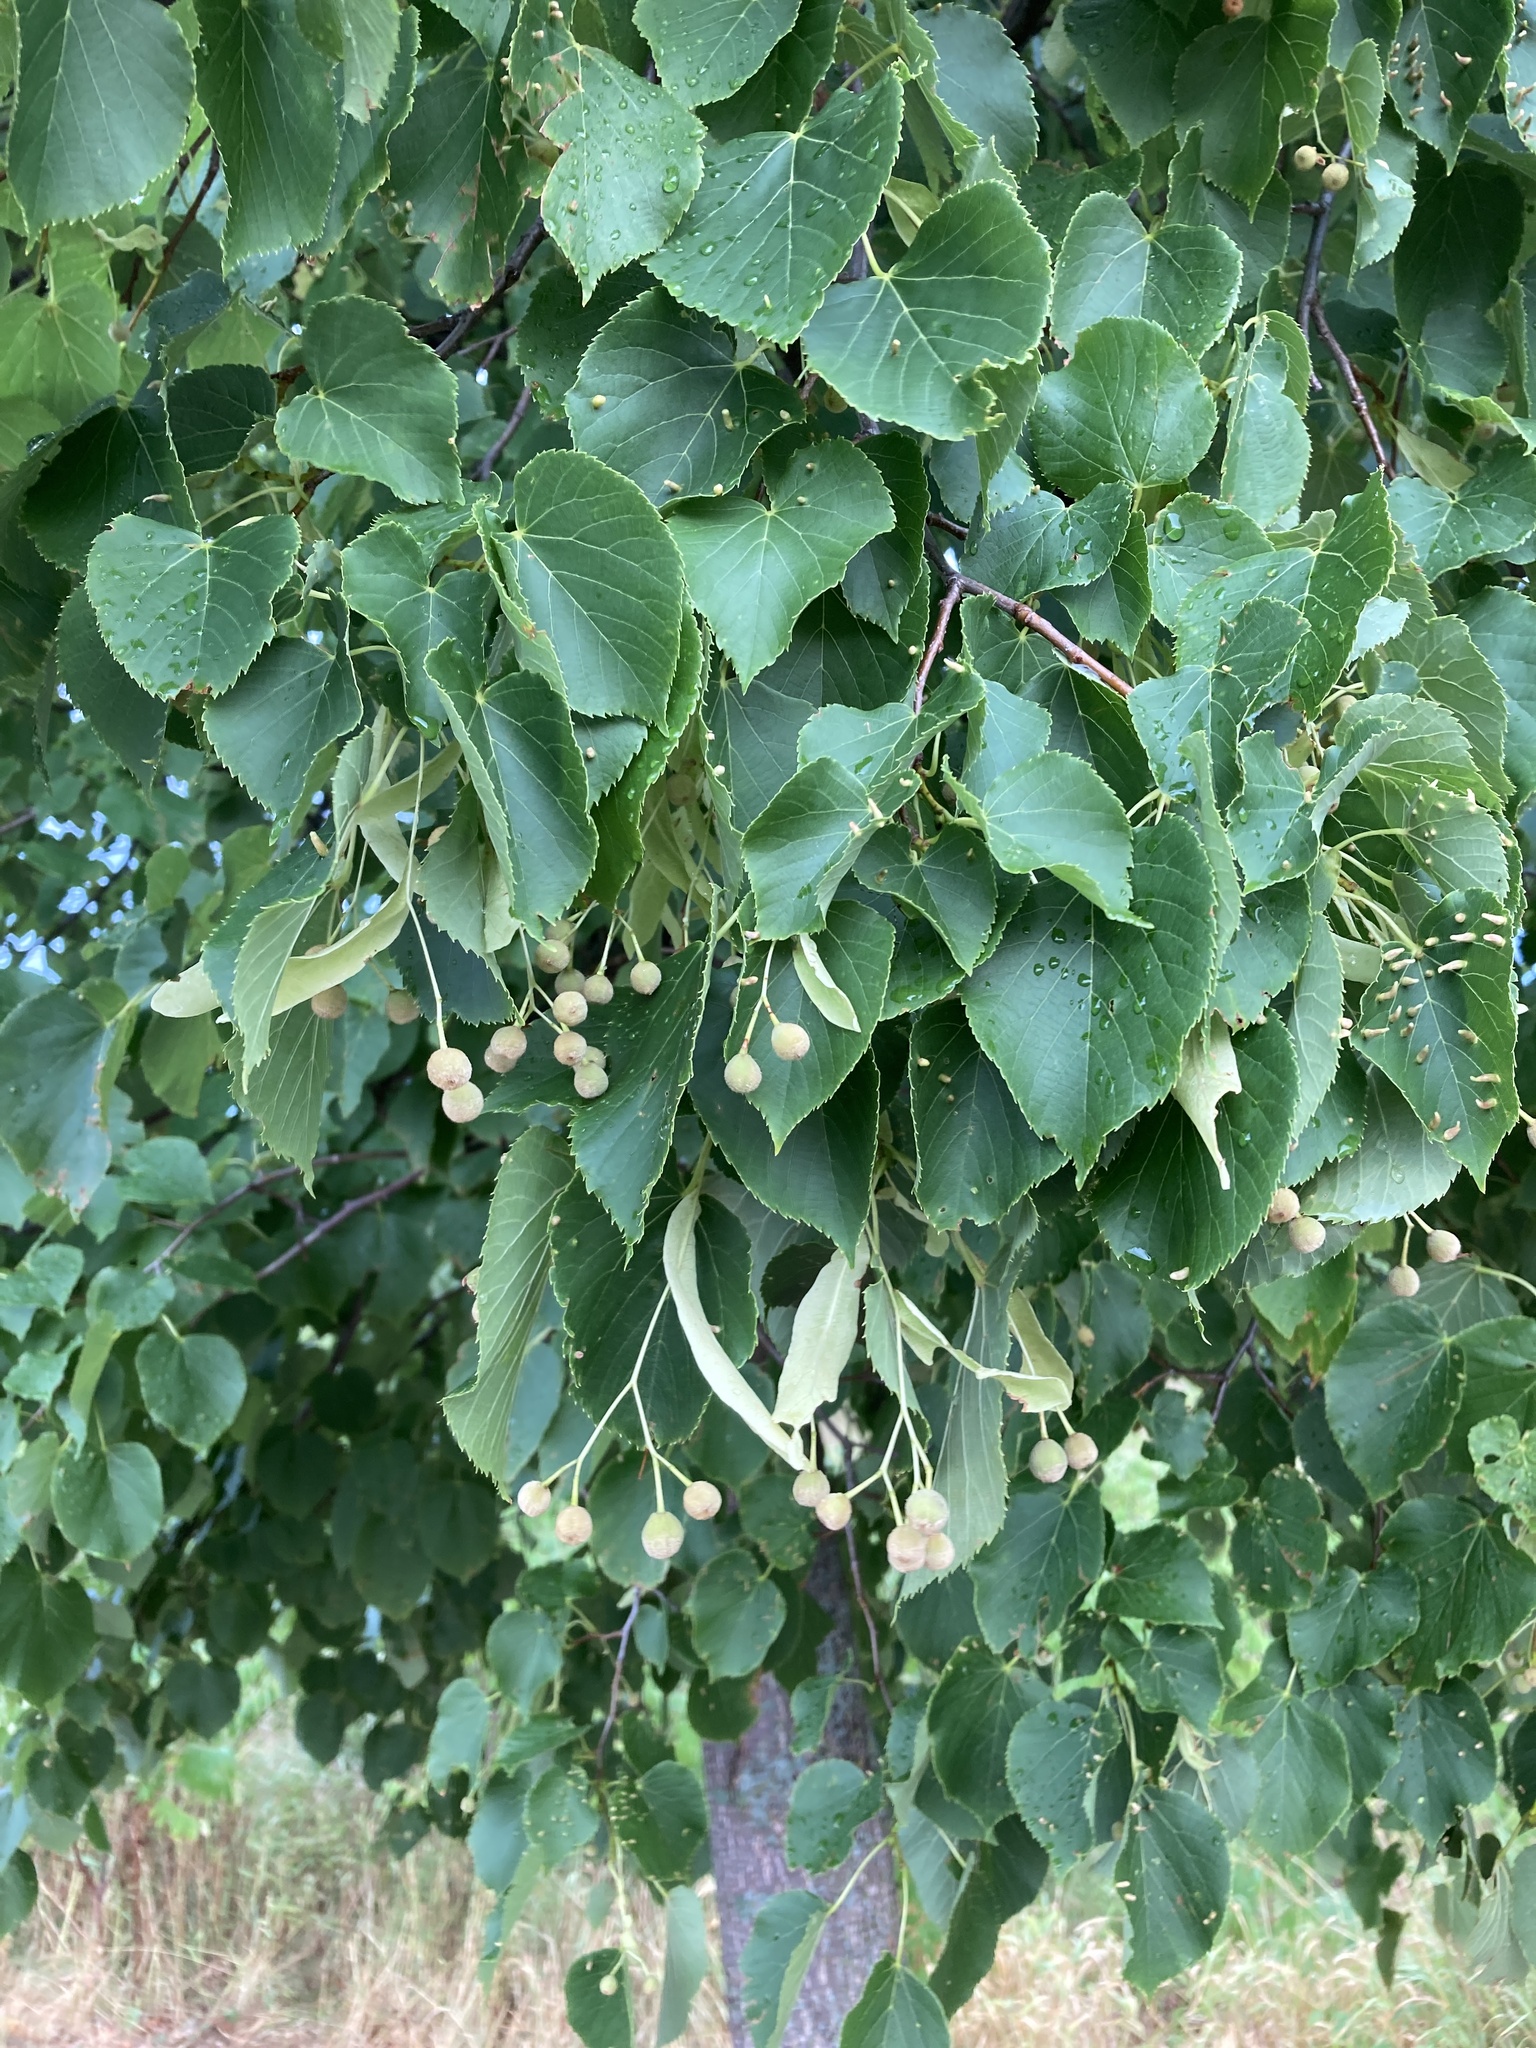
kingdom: Plantae
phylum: Tracheophyta
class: Magnoliopsida
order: Malvales
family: Malvaceae
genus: Tilia
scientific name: Tilia cordata
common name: Small-leaved lime
